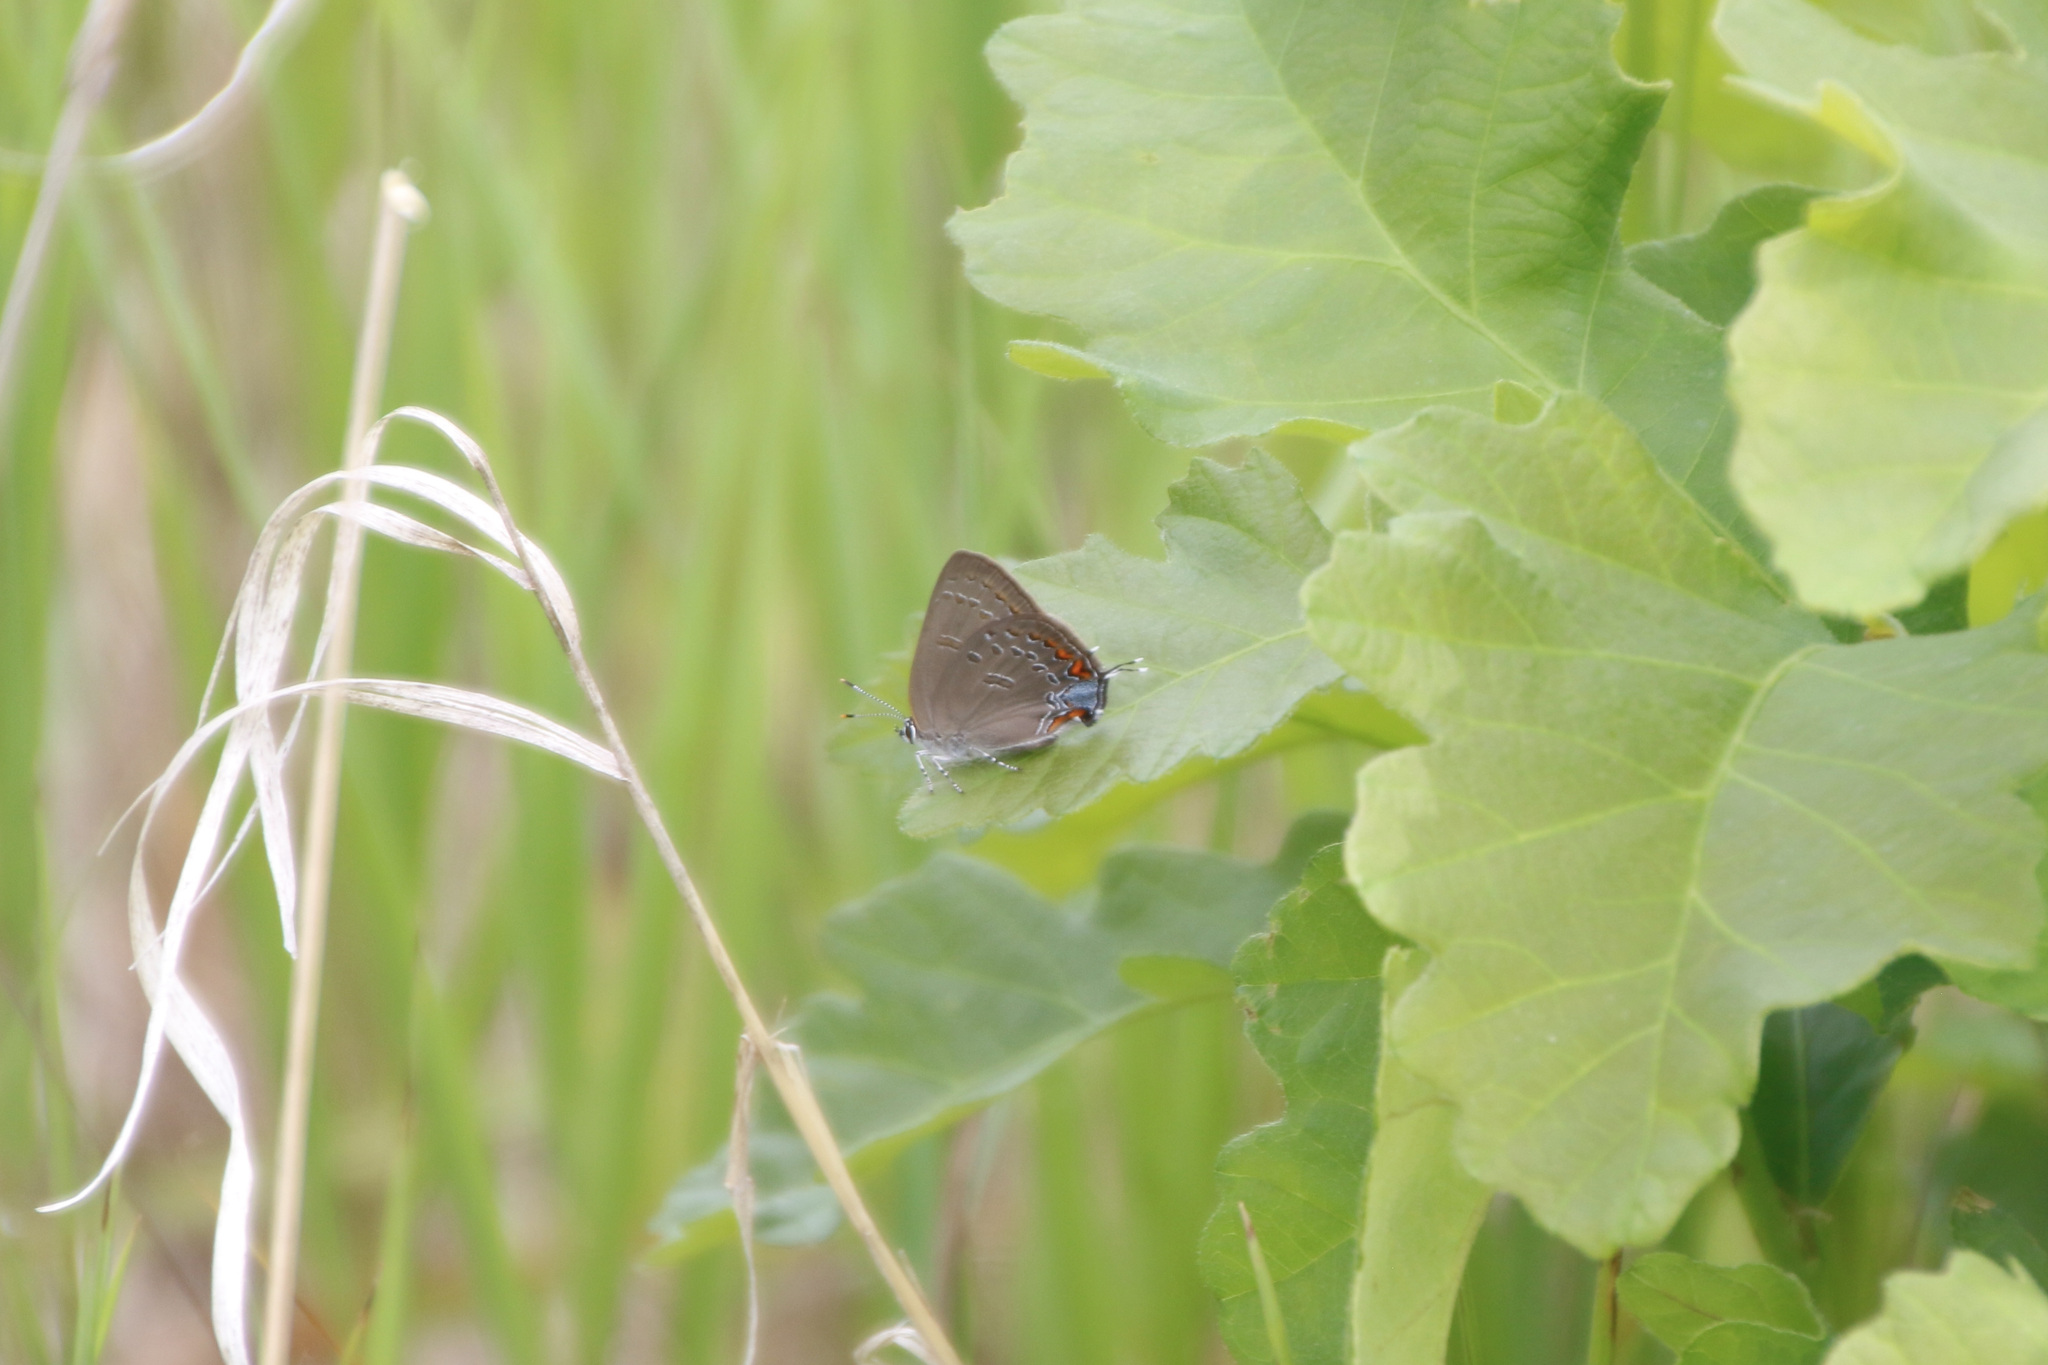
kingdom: Animalia
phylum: Arthropoda
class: Insecta
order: Lepidoptera
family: Lycaenidae
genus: Satyrium
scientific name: Satyrium edwardsii
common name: Edwards' hairstreak
